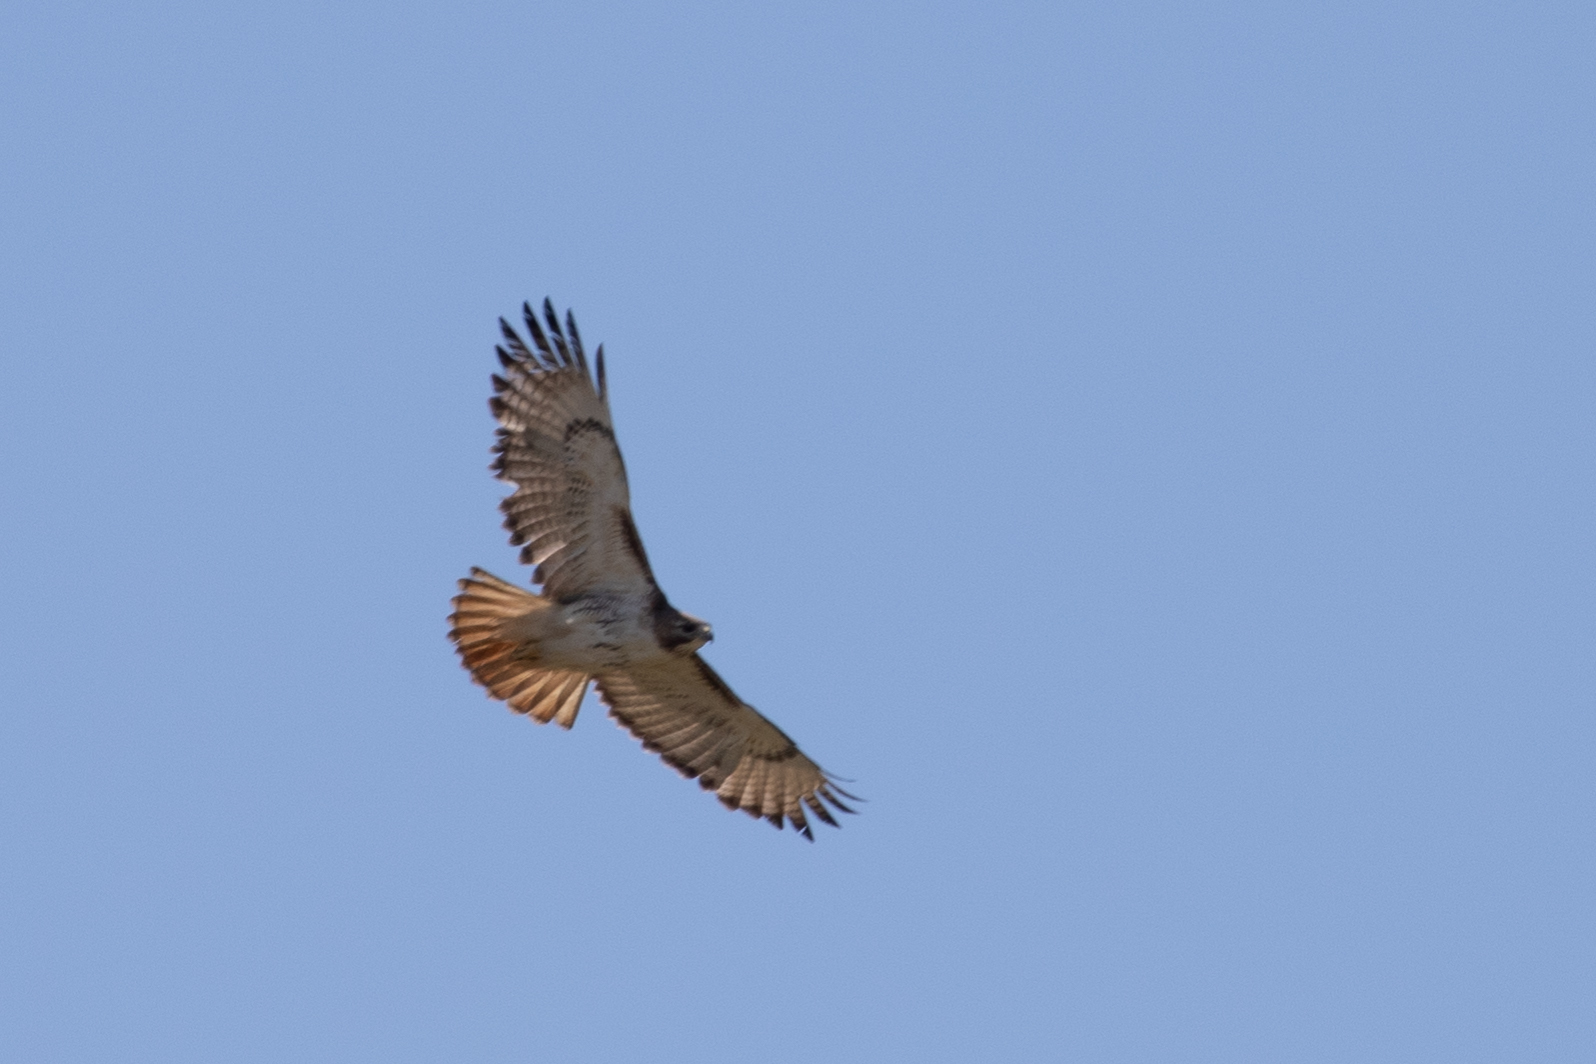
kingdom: Animalia
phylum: Chordata
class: Aves
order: Accipitriformes
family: Accipitridae
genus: Buteo
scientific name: Buteo jamaicensis
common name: Red-tailed hawk
